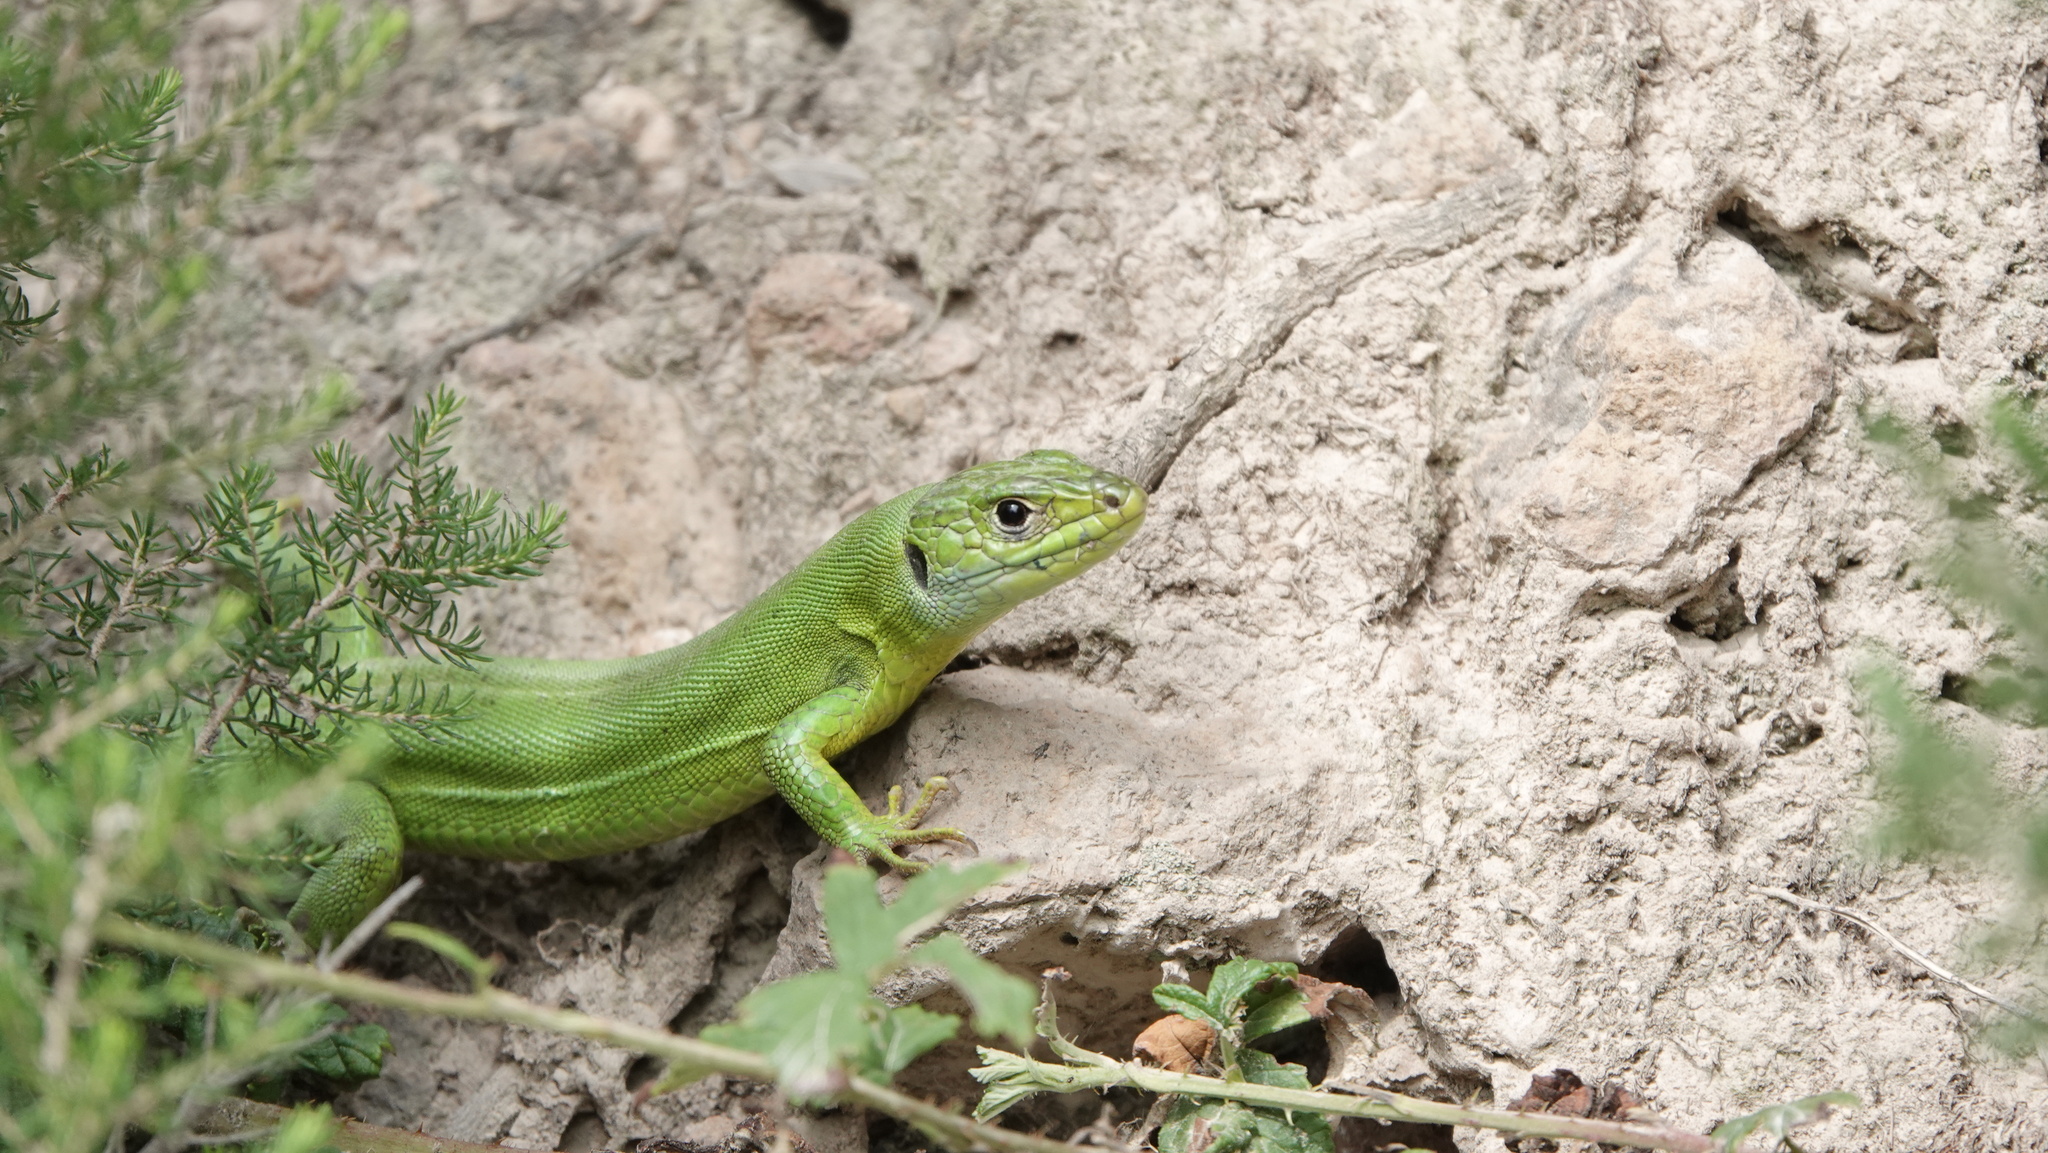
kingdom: Animalia
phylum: Chordata
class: Squamata
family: Lacertidae
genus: Lacerta
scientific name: Lacerta bilineata
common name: Western green lizard
